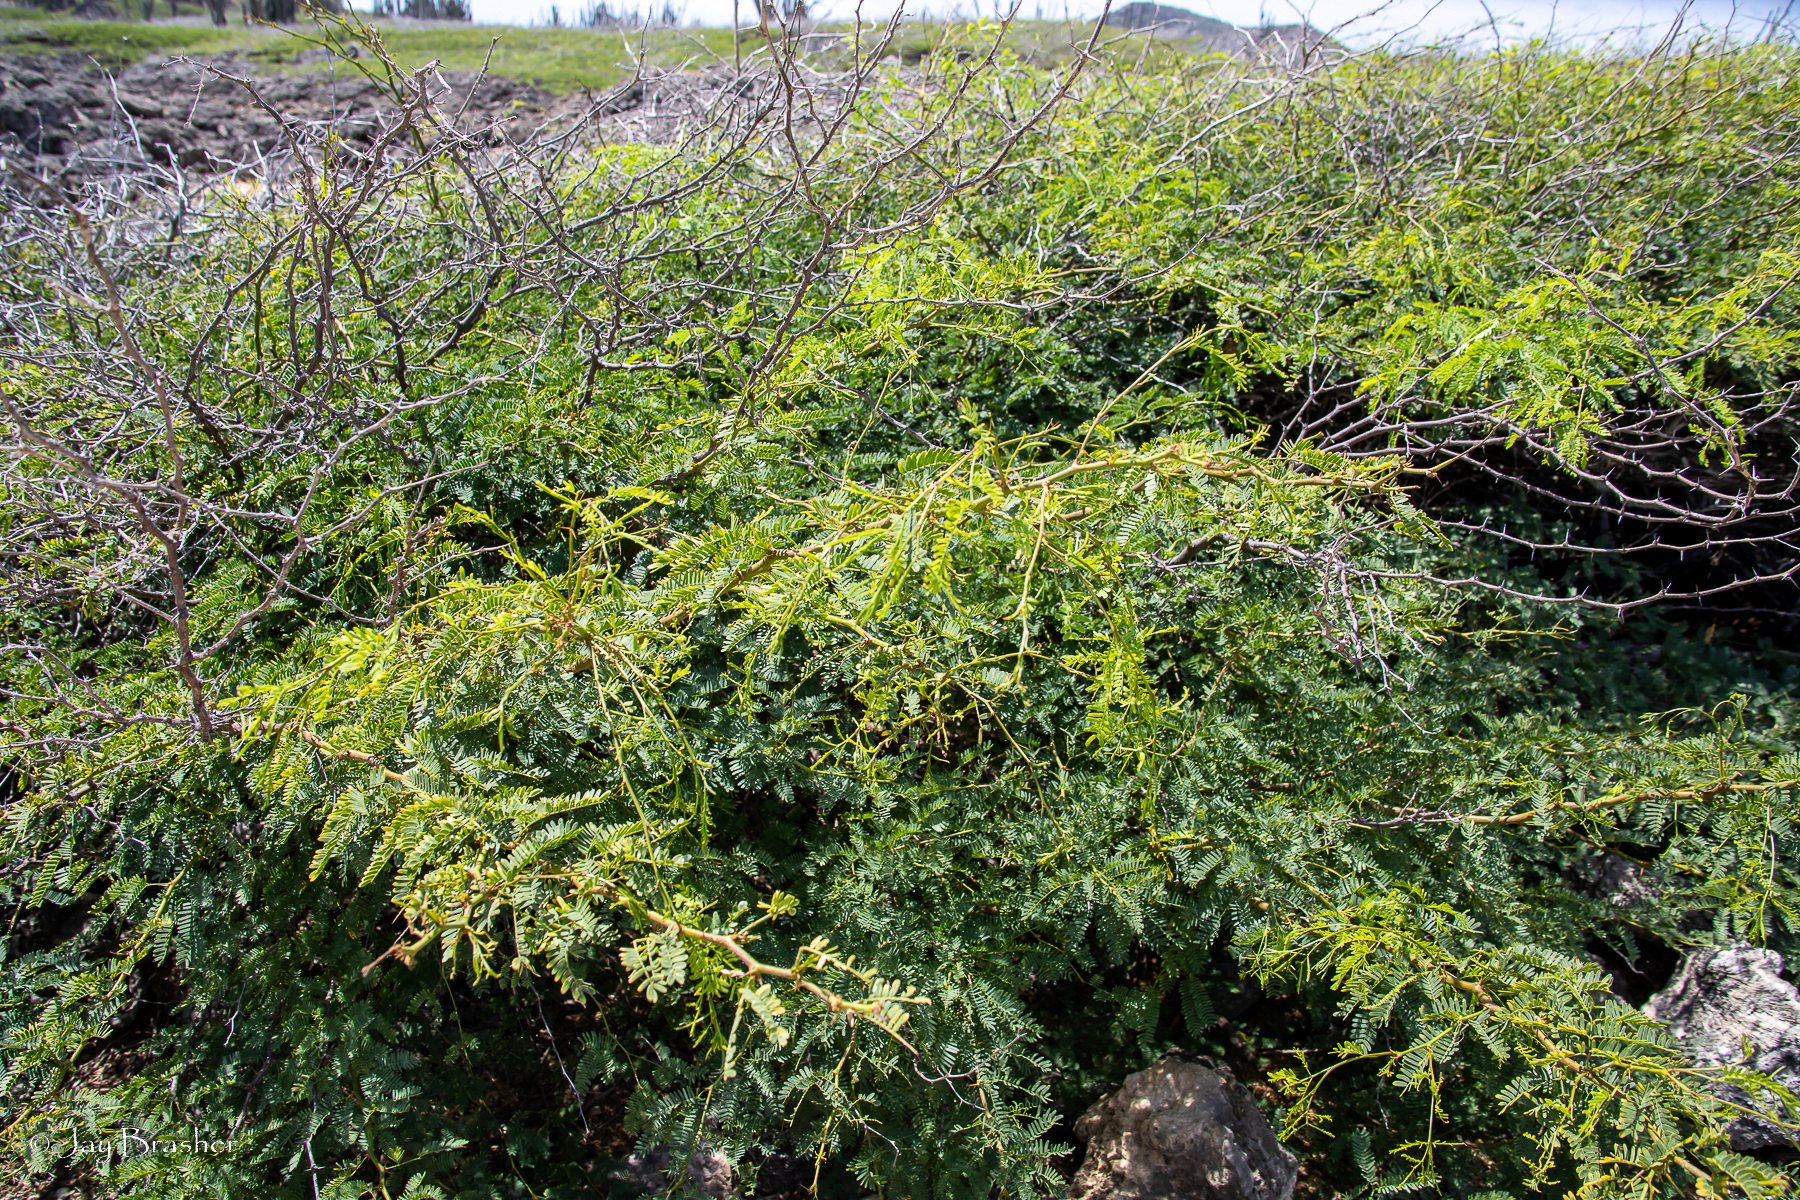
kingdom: Plantae
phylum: Tracheophyta
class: Magnoliopsida
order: Fabales
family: Fabaceae
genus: Prosopis
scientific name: Prosopis juliflora
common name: Mesquite
